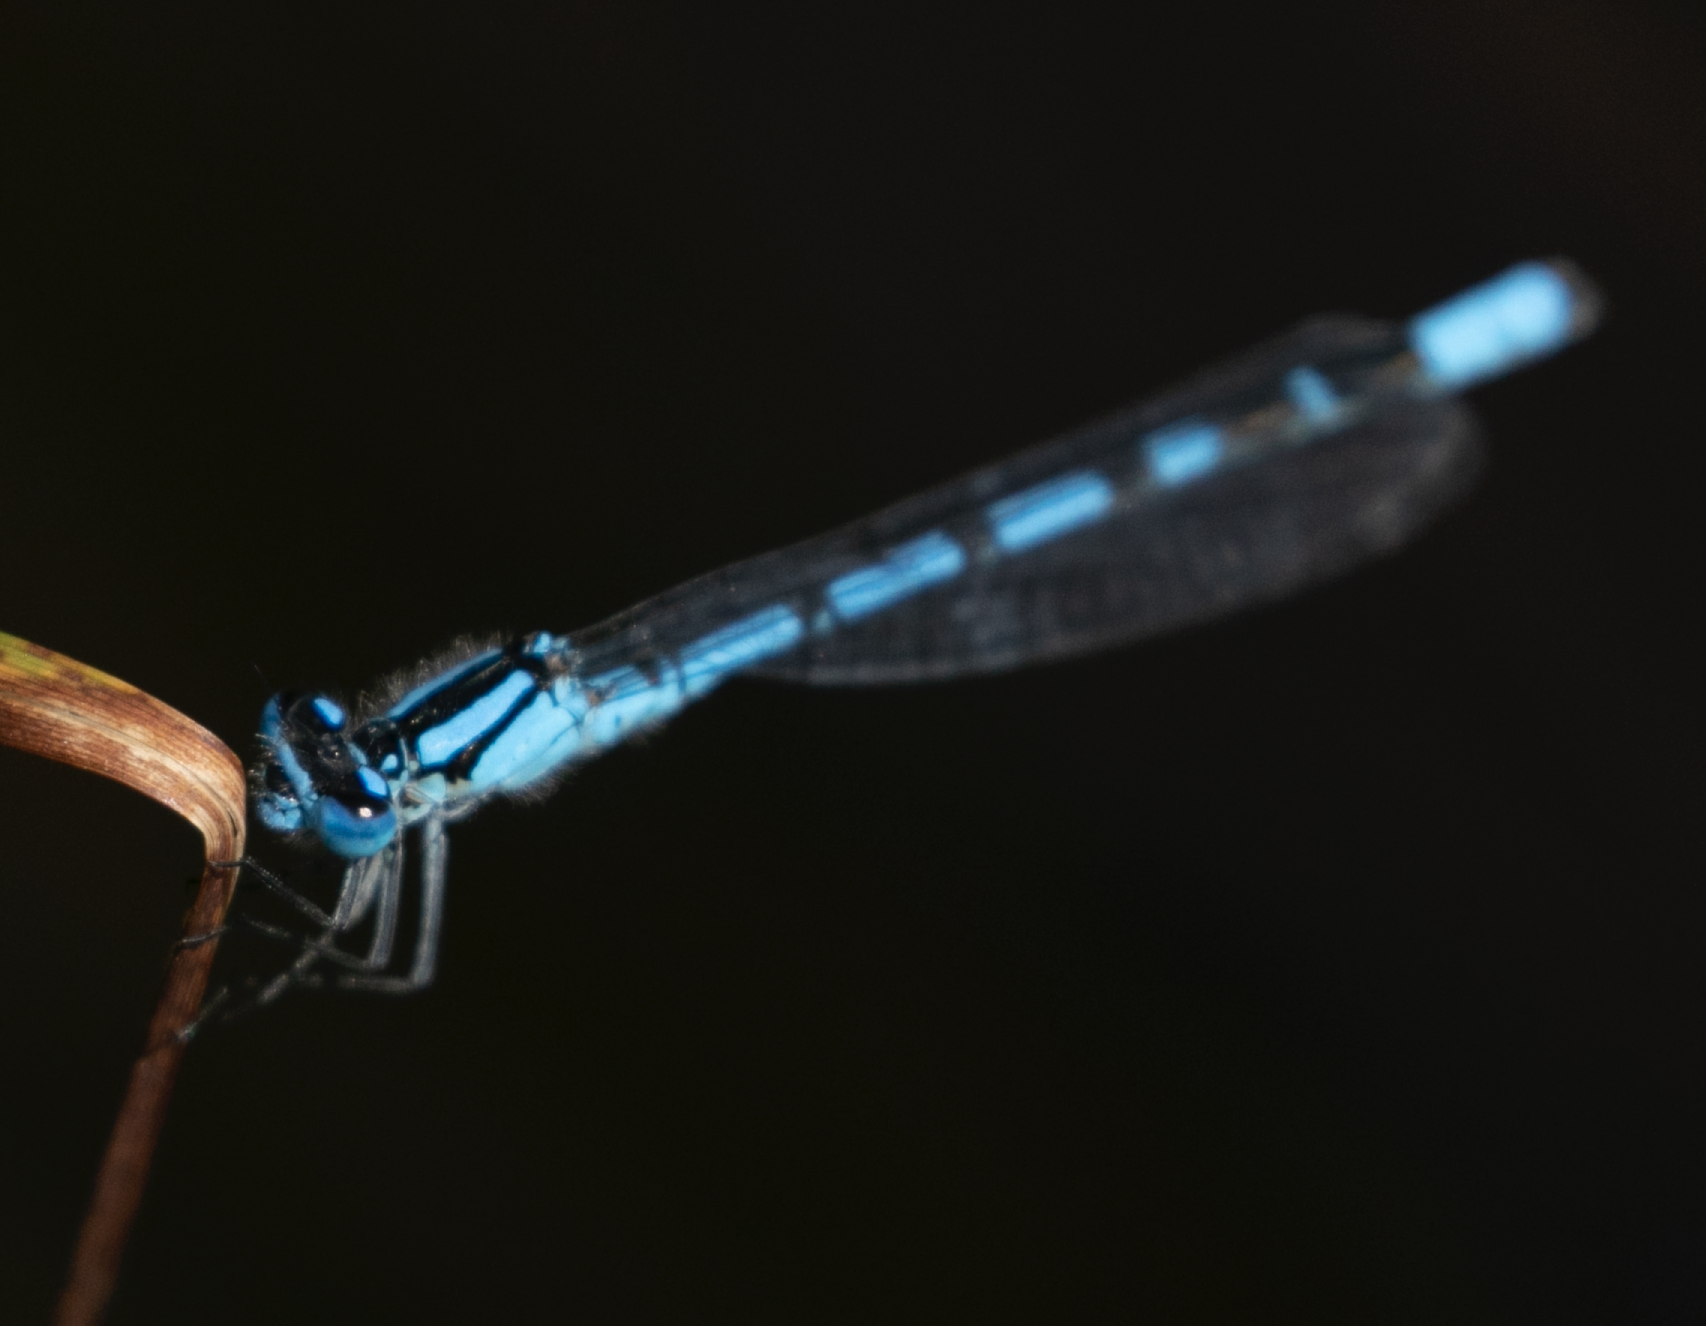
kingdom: Animalia
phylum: Arthropoda
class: Insecta
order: Odonata
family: Coenagrionidae
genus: Enallagma
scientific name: Enallagma cyathigerum
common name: Common blue damselfly
